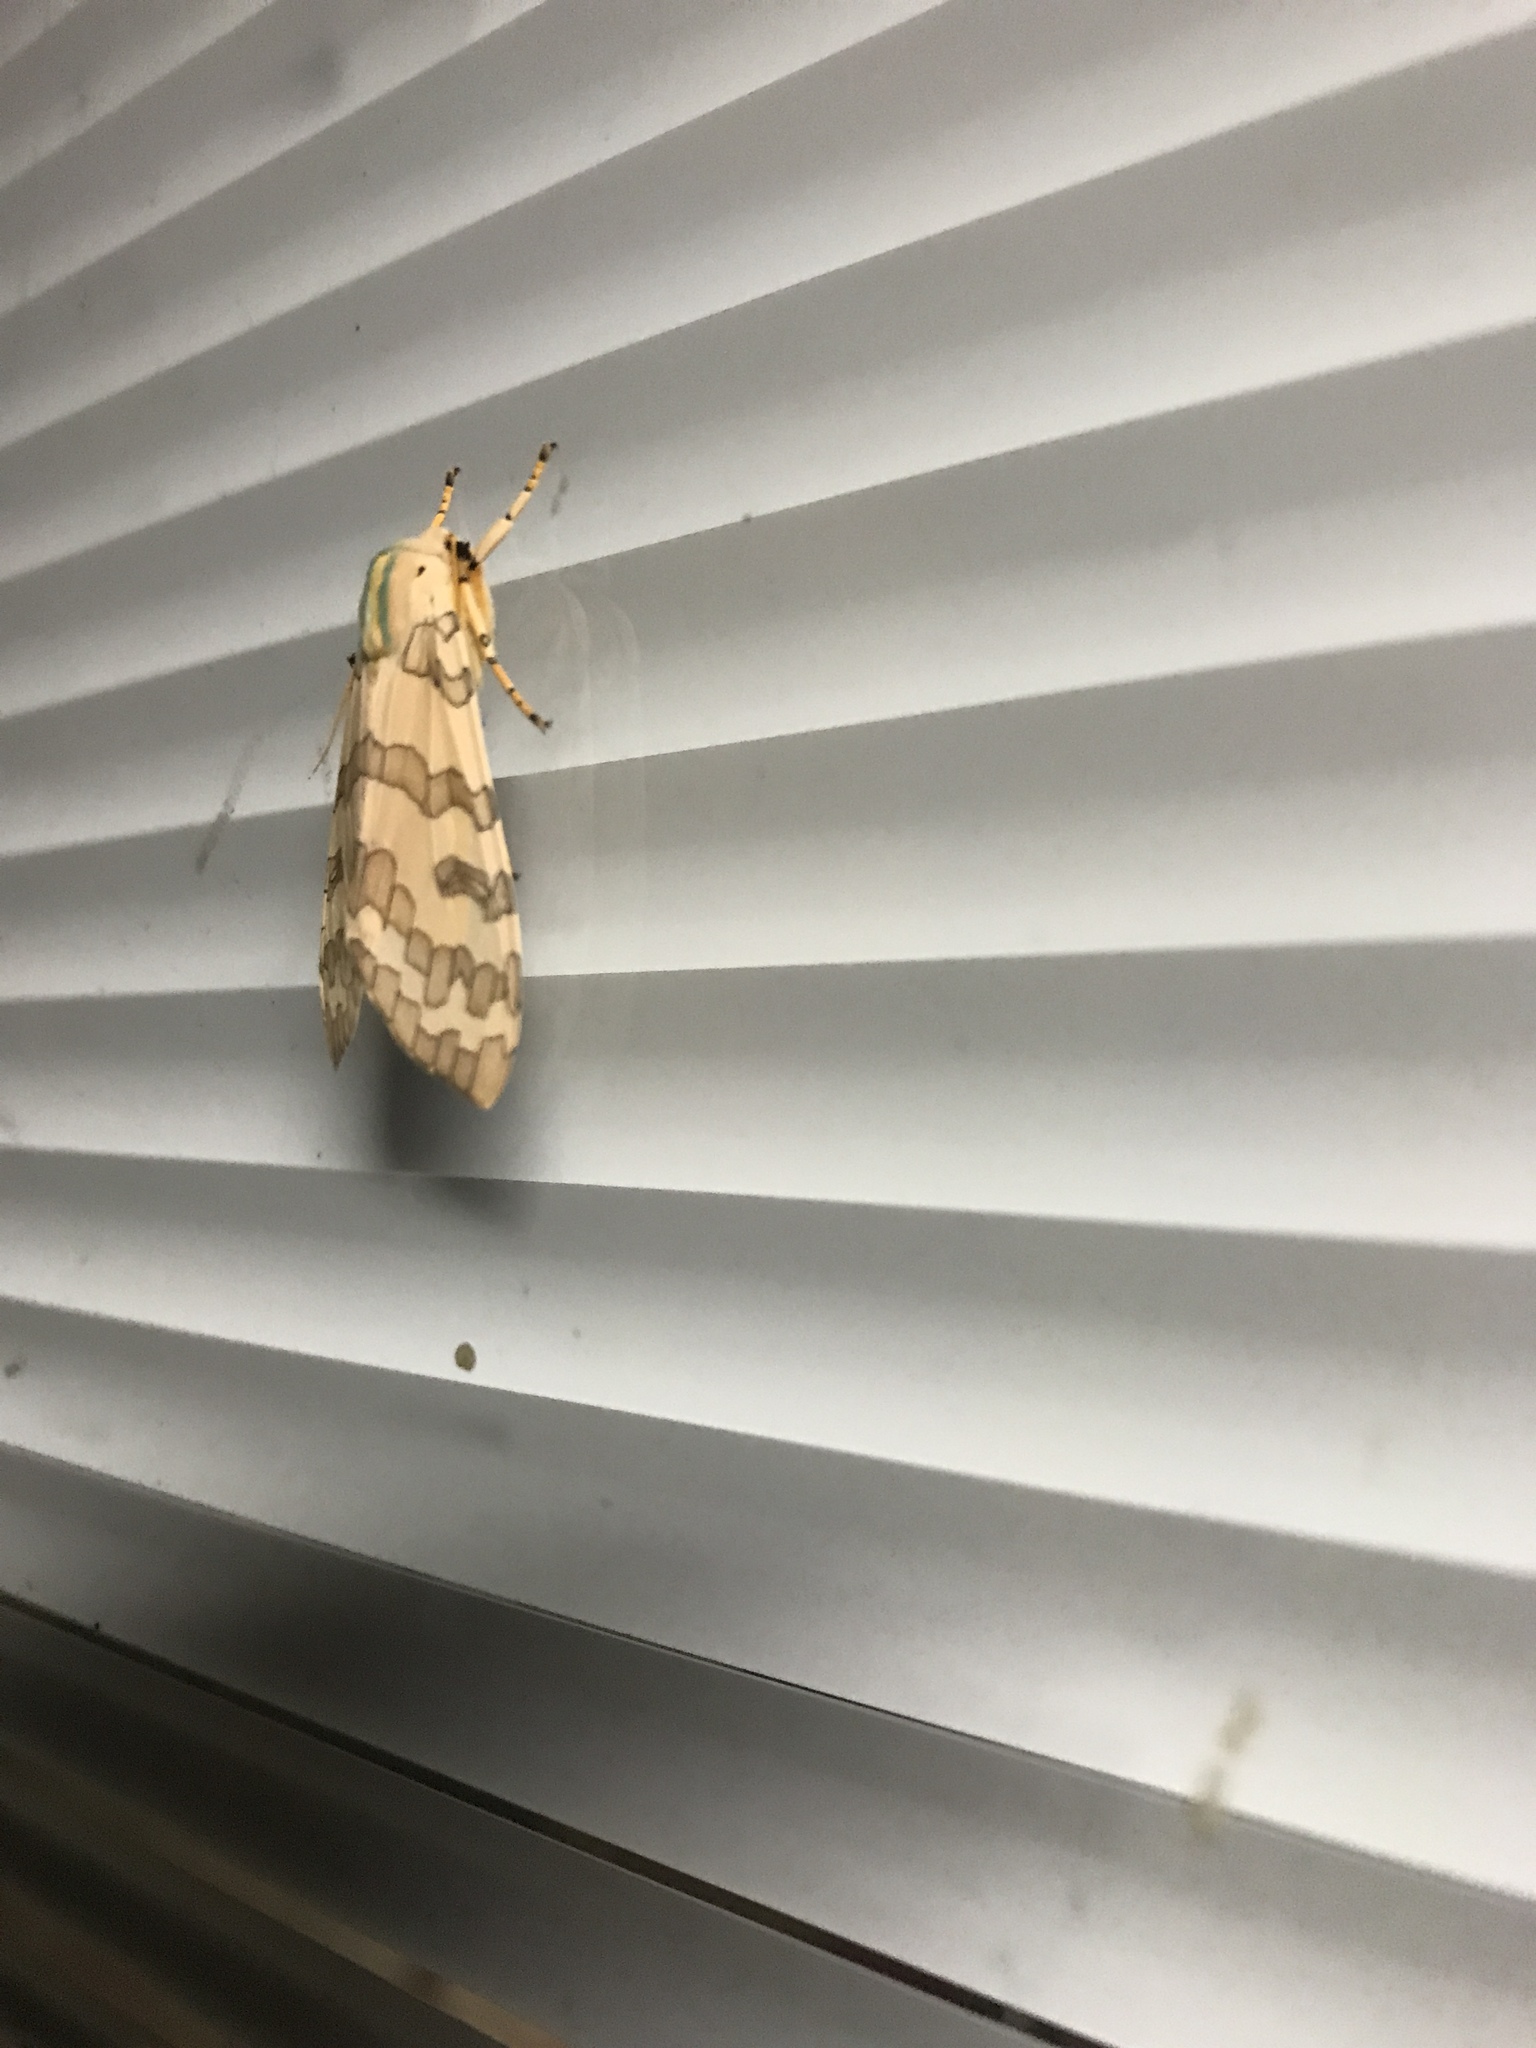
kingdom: Animalia
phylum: Arthropoda
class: Insecta
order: Lepidoptera
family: Erebidae
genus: Halysidota
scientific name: Halysidota
